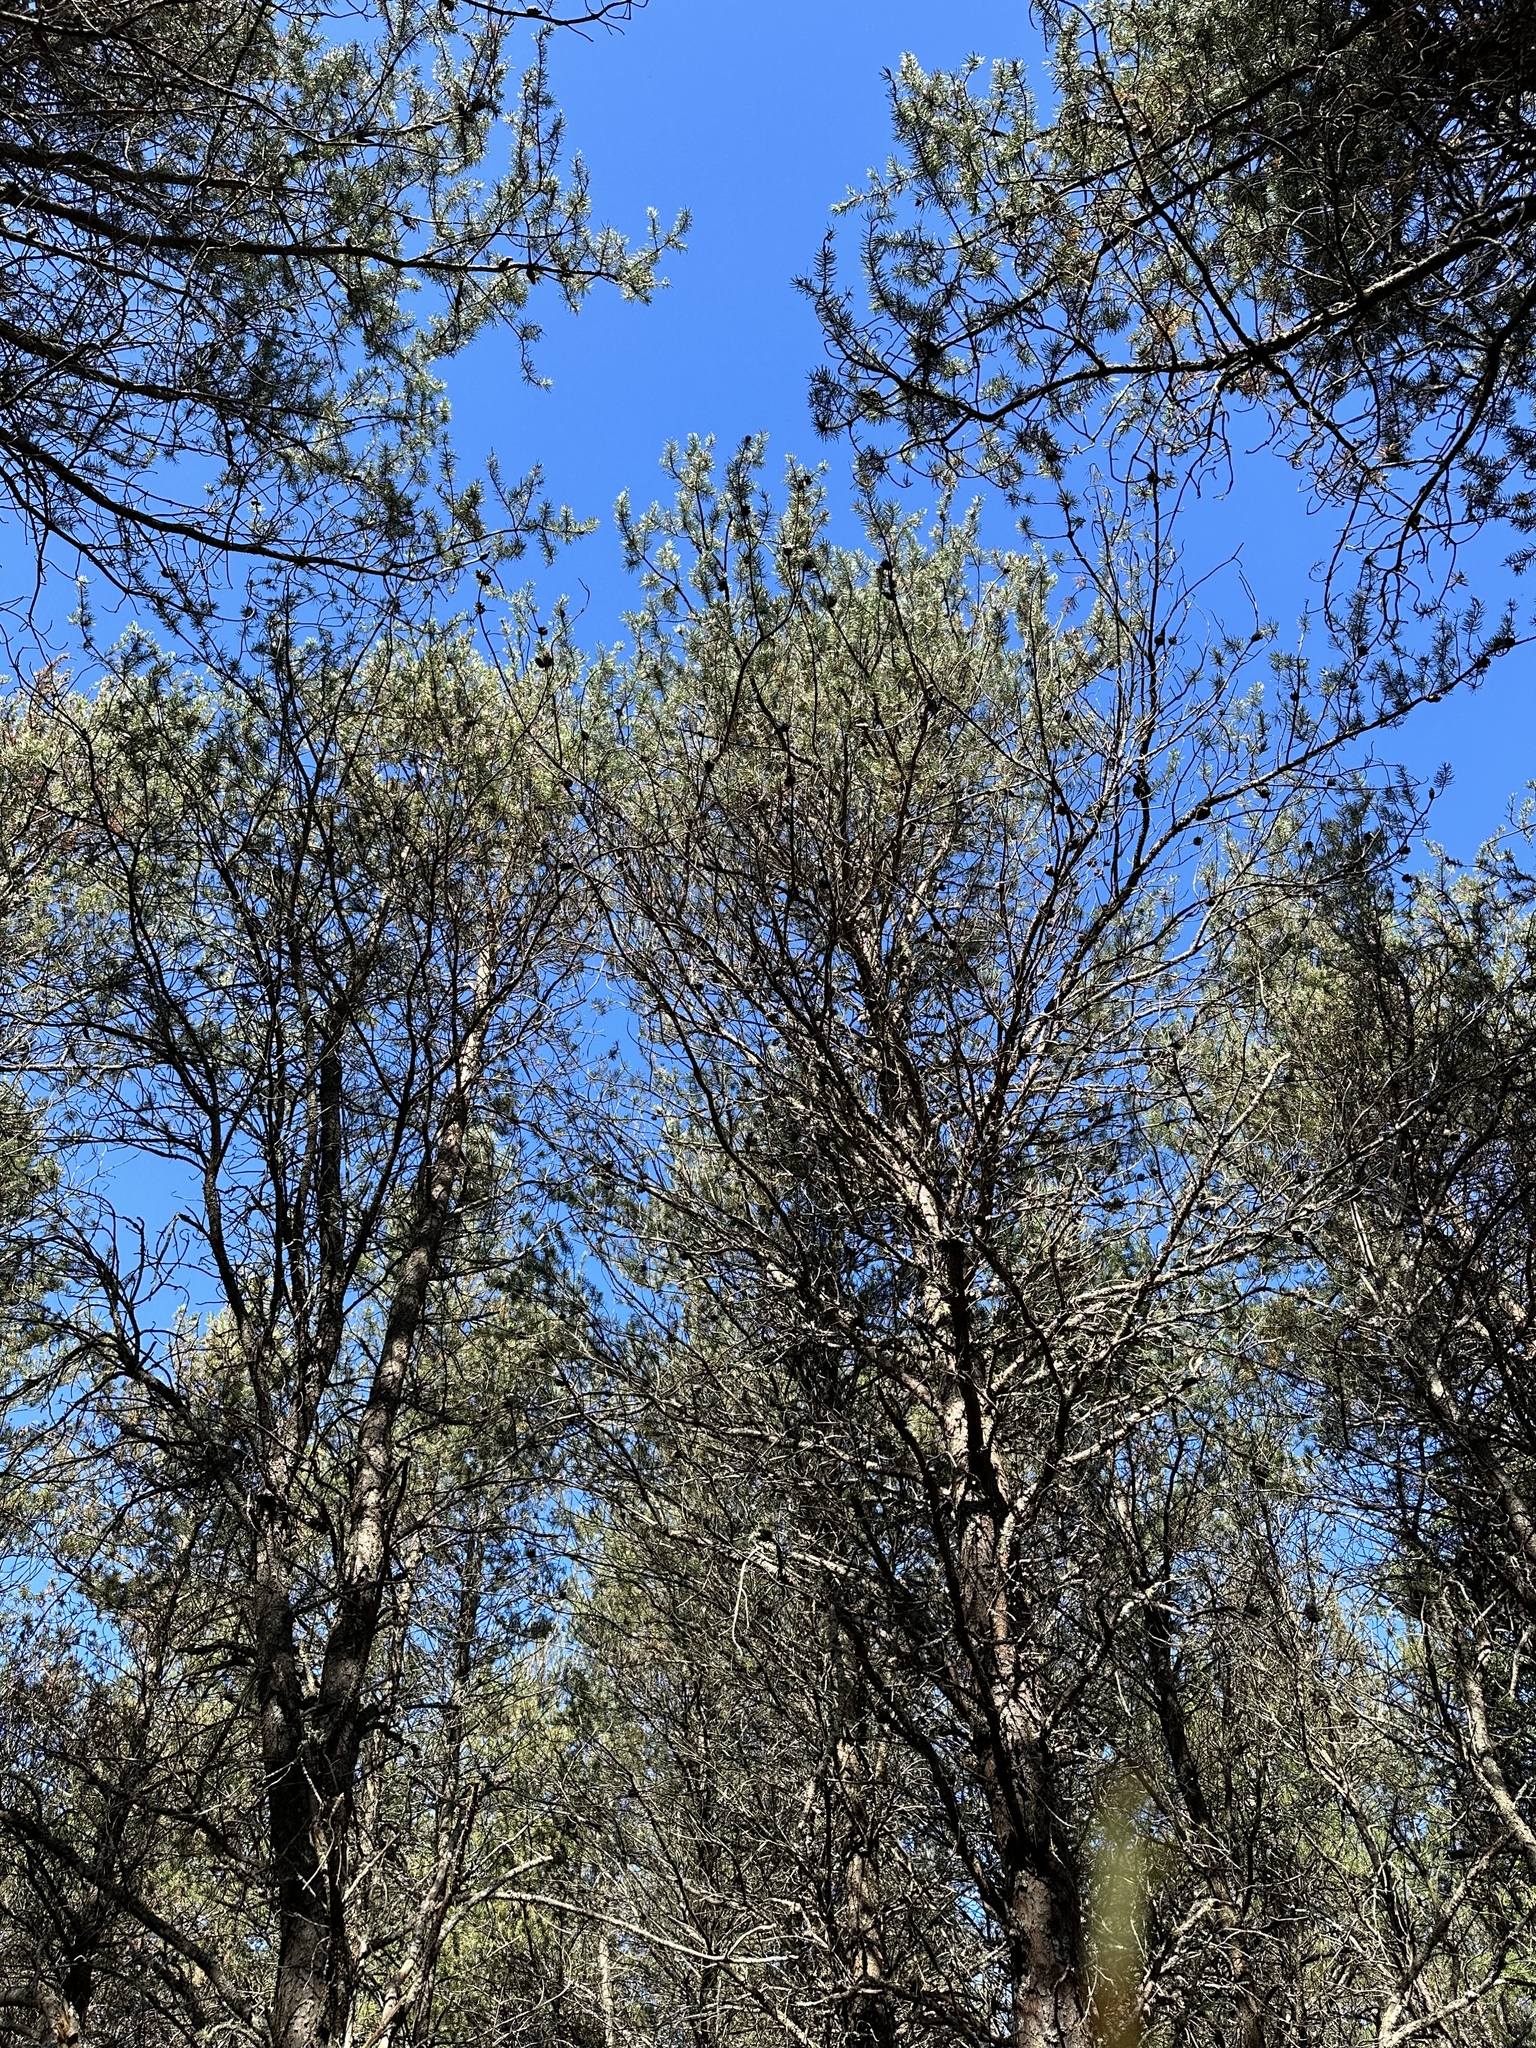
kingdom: Plantae
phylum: Tracheophyta
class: Pinopsida
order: Pinales
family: Pinaceae
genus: Pinus
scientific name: Pinus banksiana
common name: Jack pine
